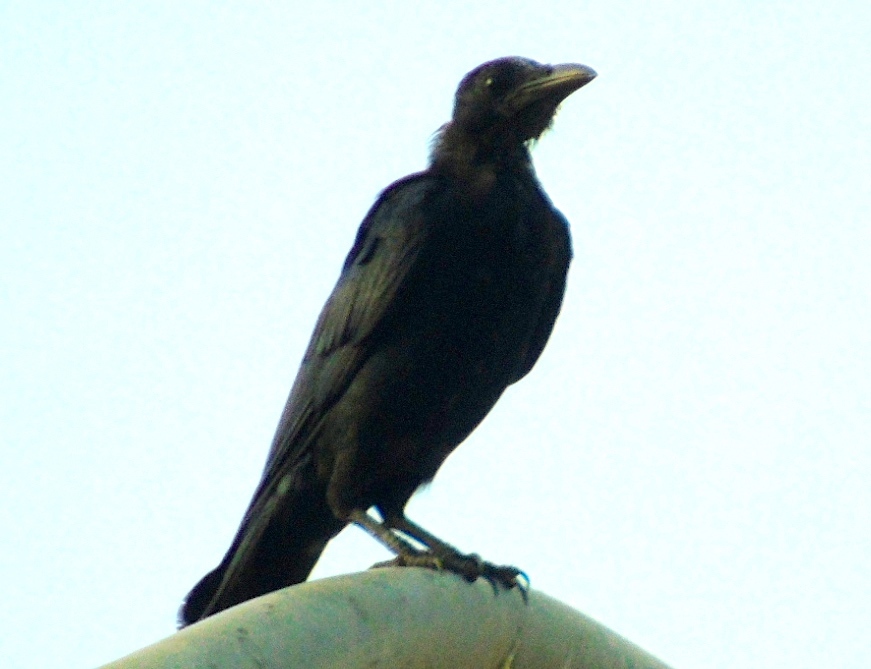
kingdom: Animalia
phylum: Chordata
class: Aves
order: Passeriformes
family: Corvidae
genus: Corvus
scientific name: Corvus sinaloae
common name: Sinaloa crow
